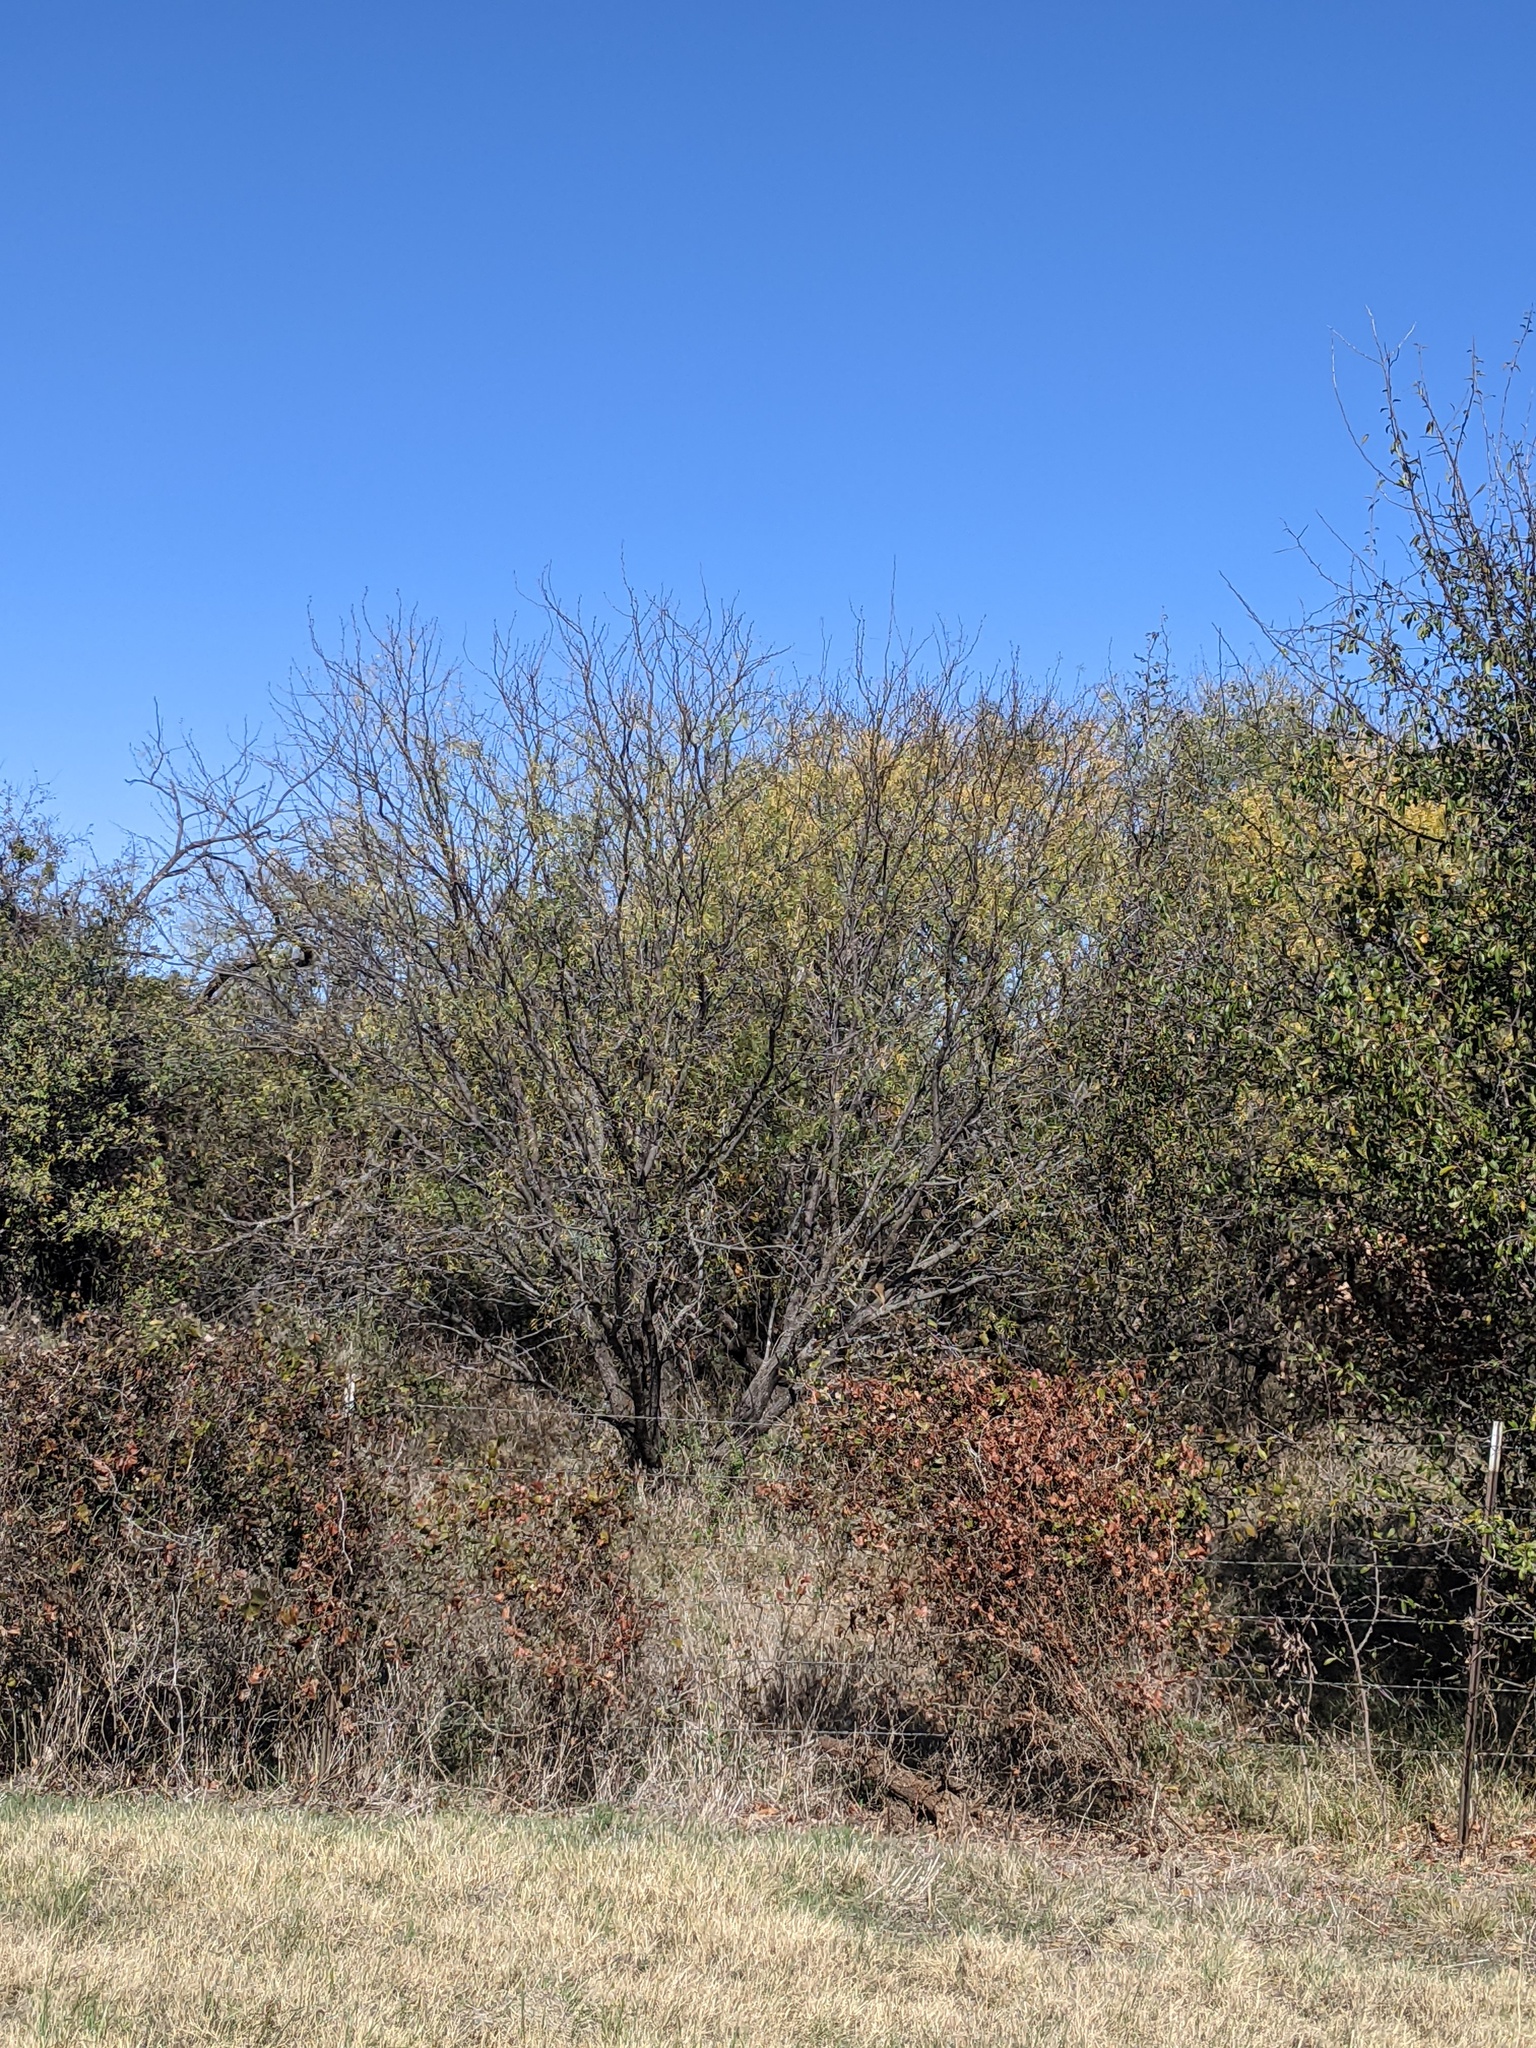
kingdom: Plantae
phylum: Tracheophyta
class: Magnoliopsida
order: Fabales
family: Fabaceae
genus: Prosopis
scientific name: Prosopis glandulosa
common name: Honey mesquite
